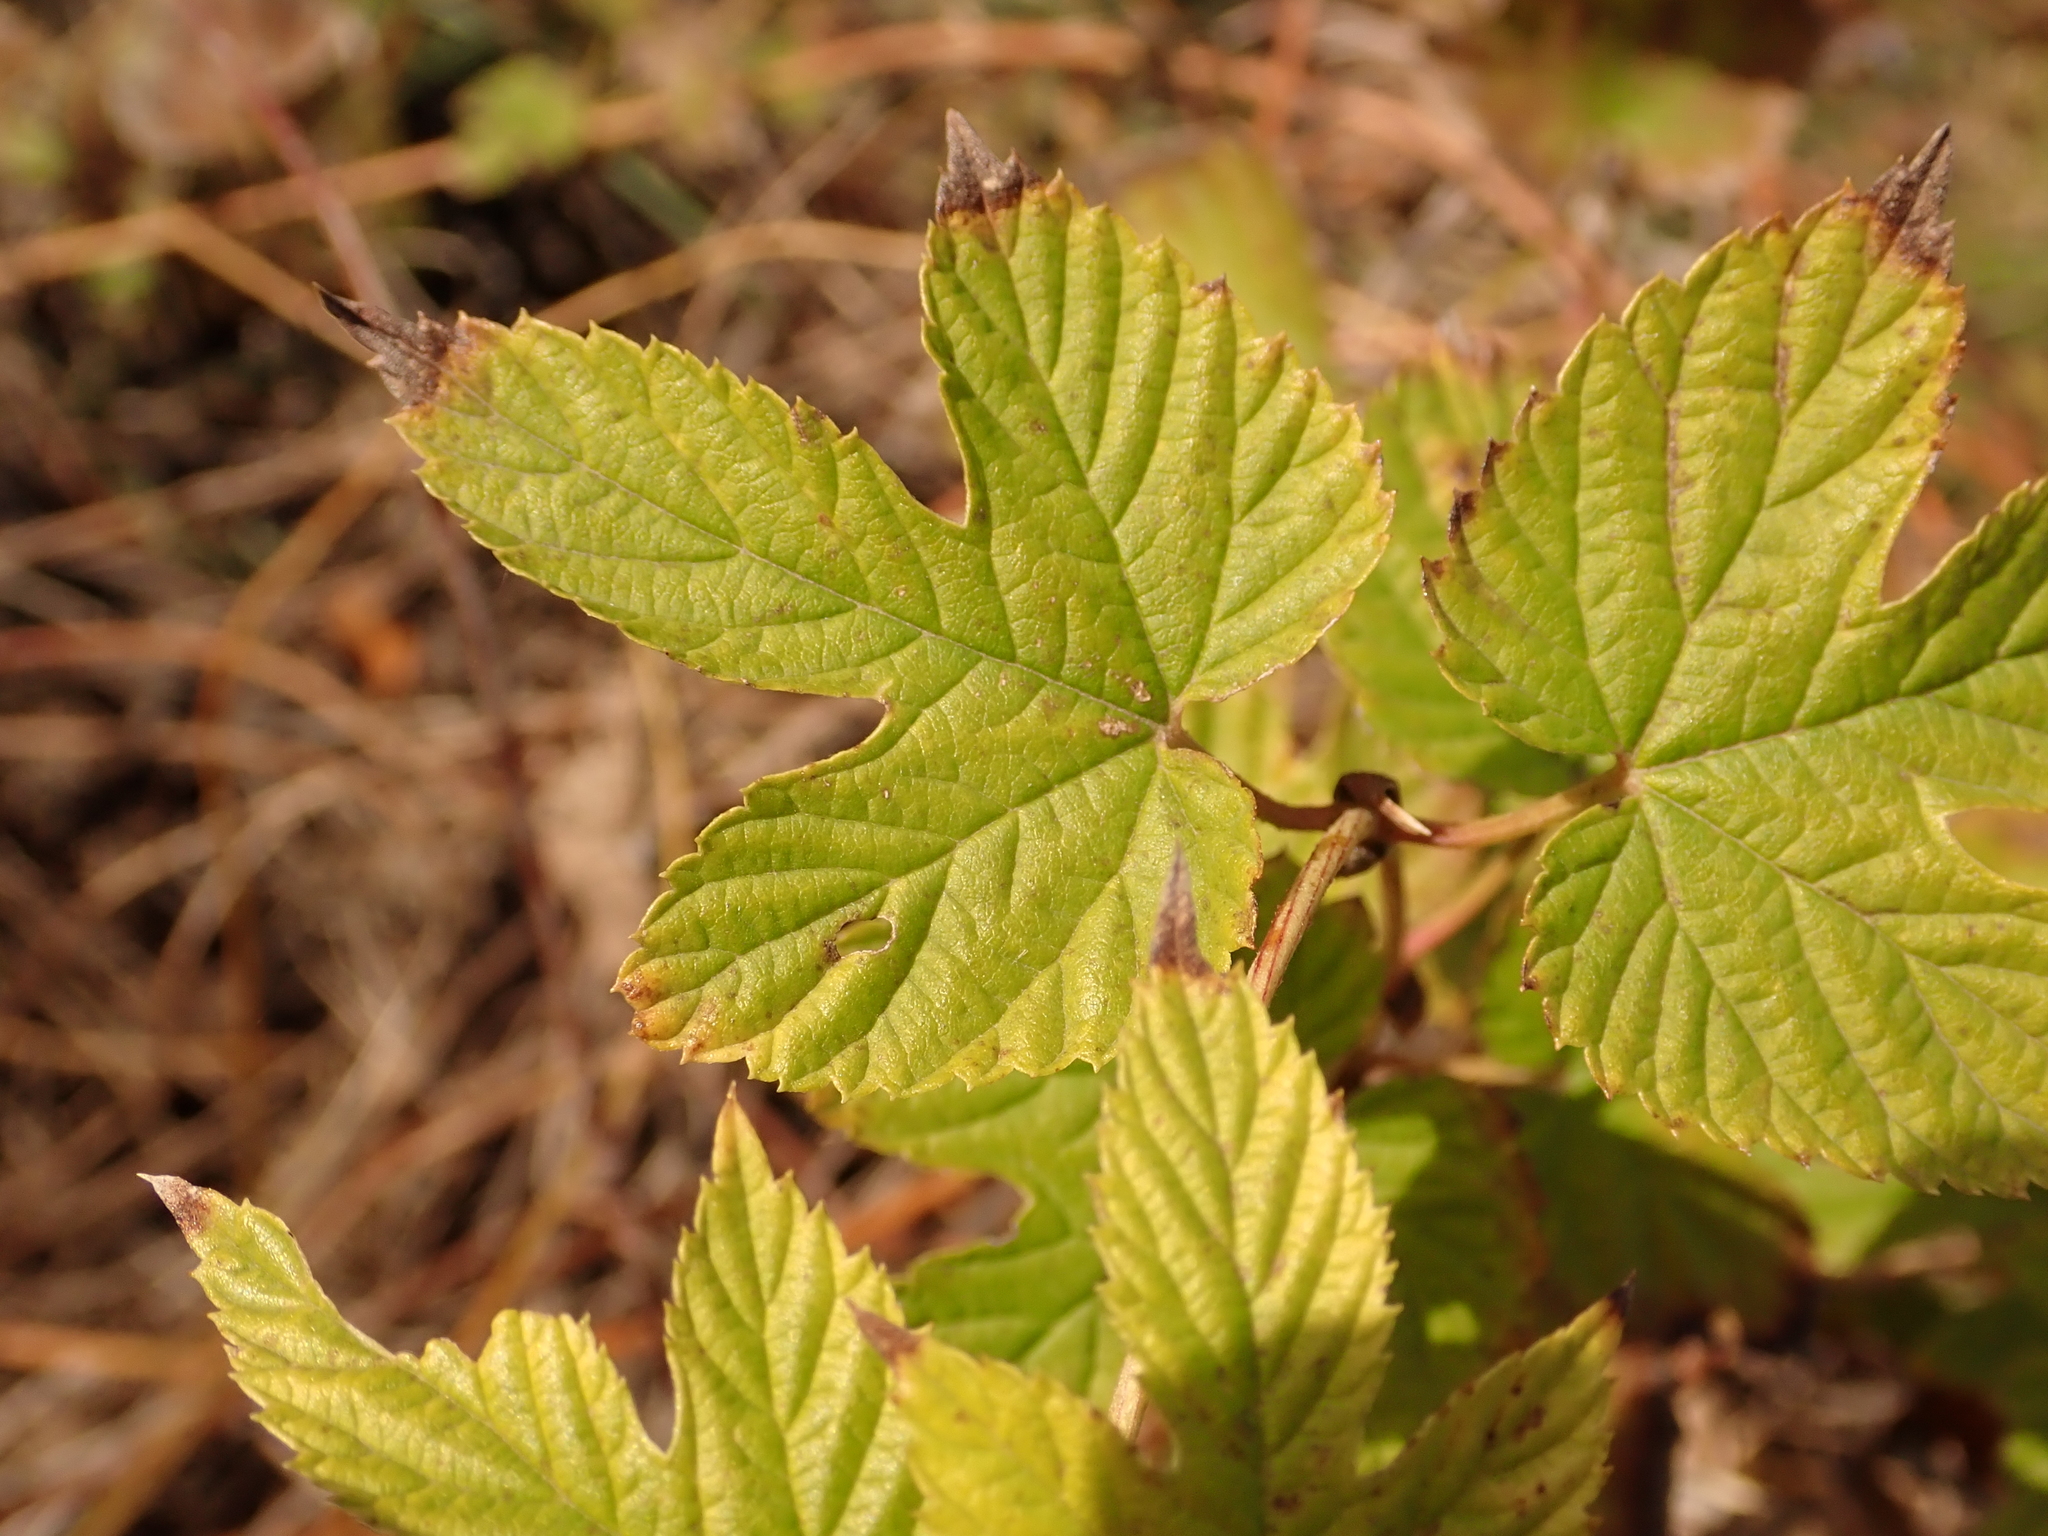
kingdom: Plantae
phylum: Tracheophyta
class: Magnoliopsida
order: Rosales
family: Cannabaceae
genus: Humulus
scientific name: Humulus lupulus
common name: Hop
